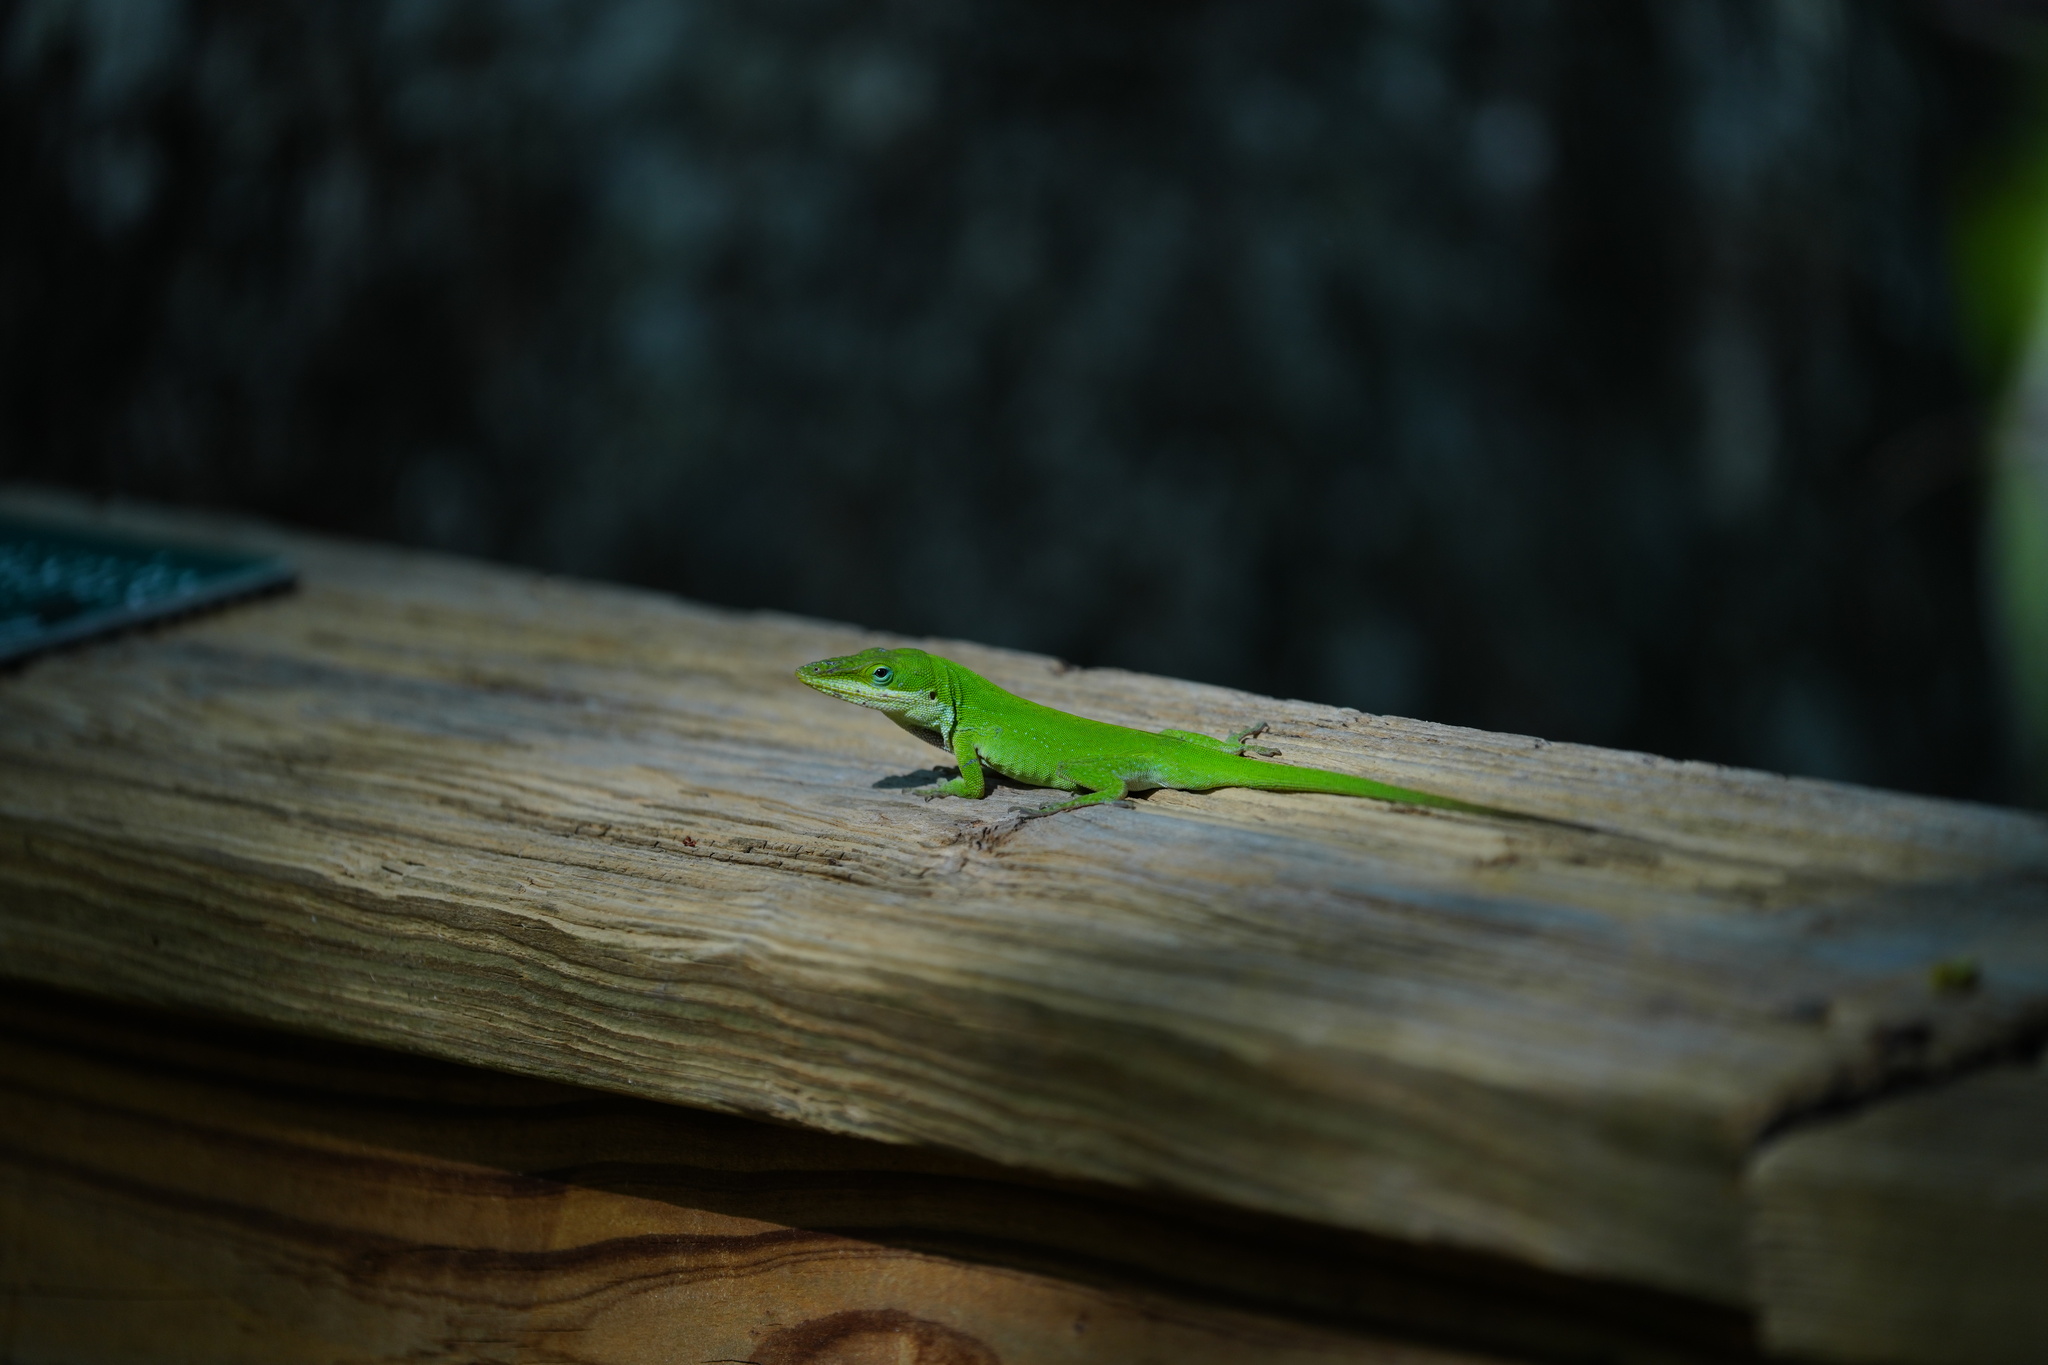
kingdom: Animalia
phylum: Chordata
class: Squamata
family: Dactyloidae
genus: Anolis
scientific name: Anolis carolinensis
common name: Green anole
